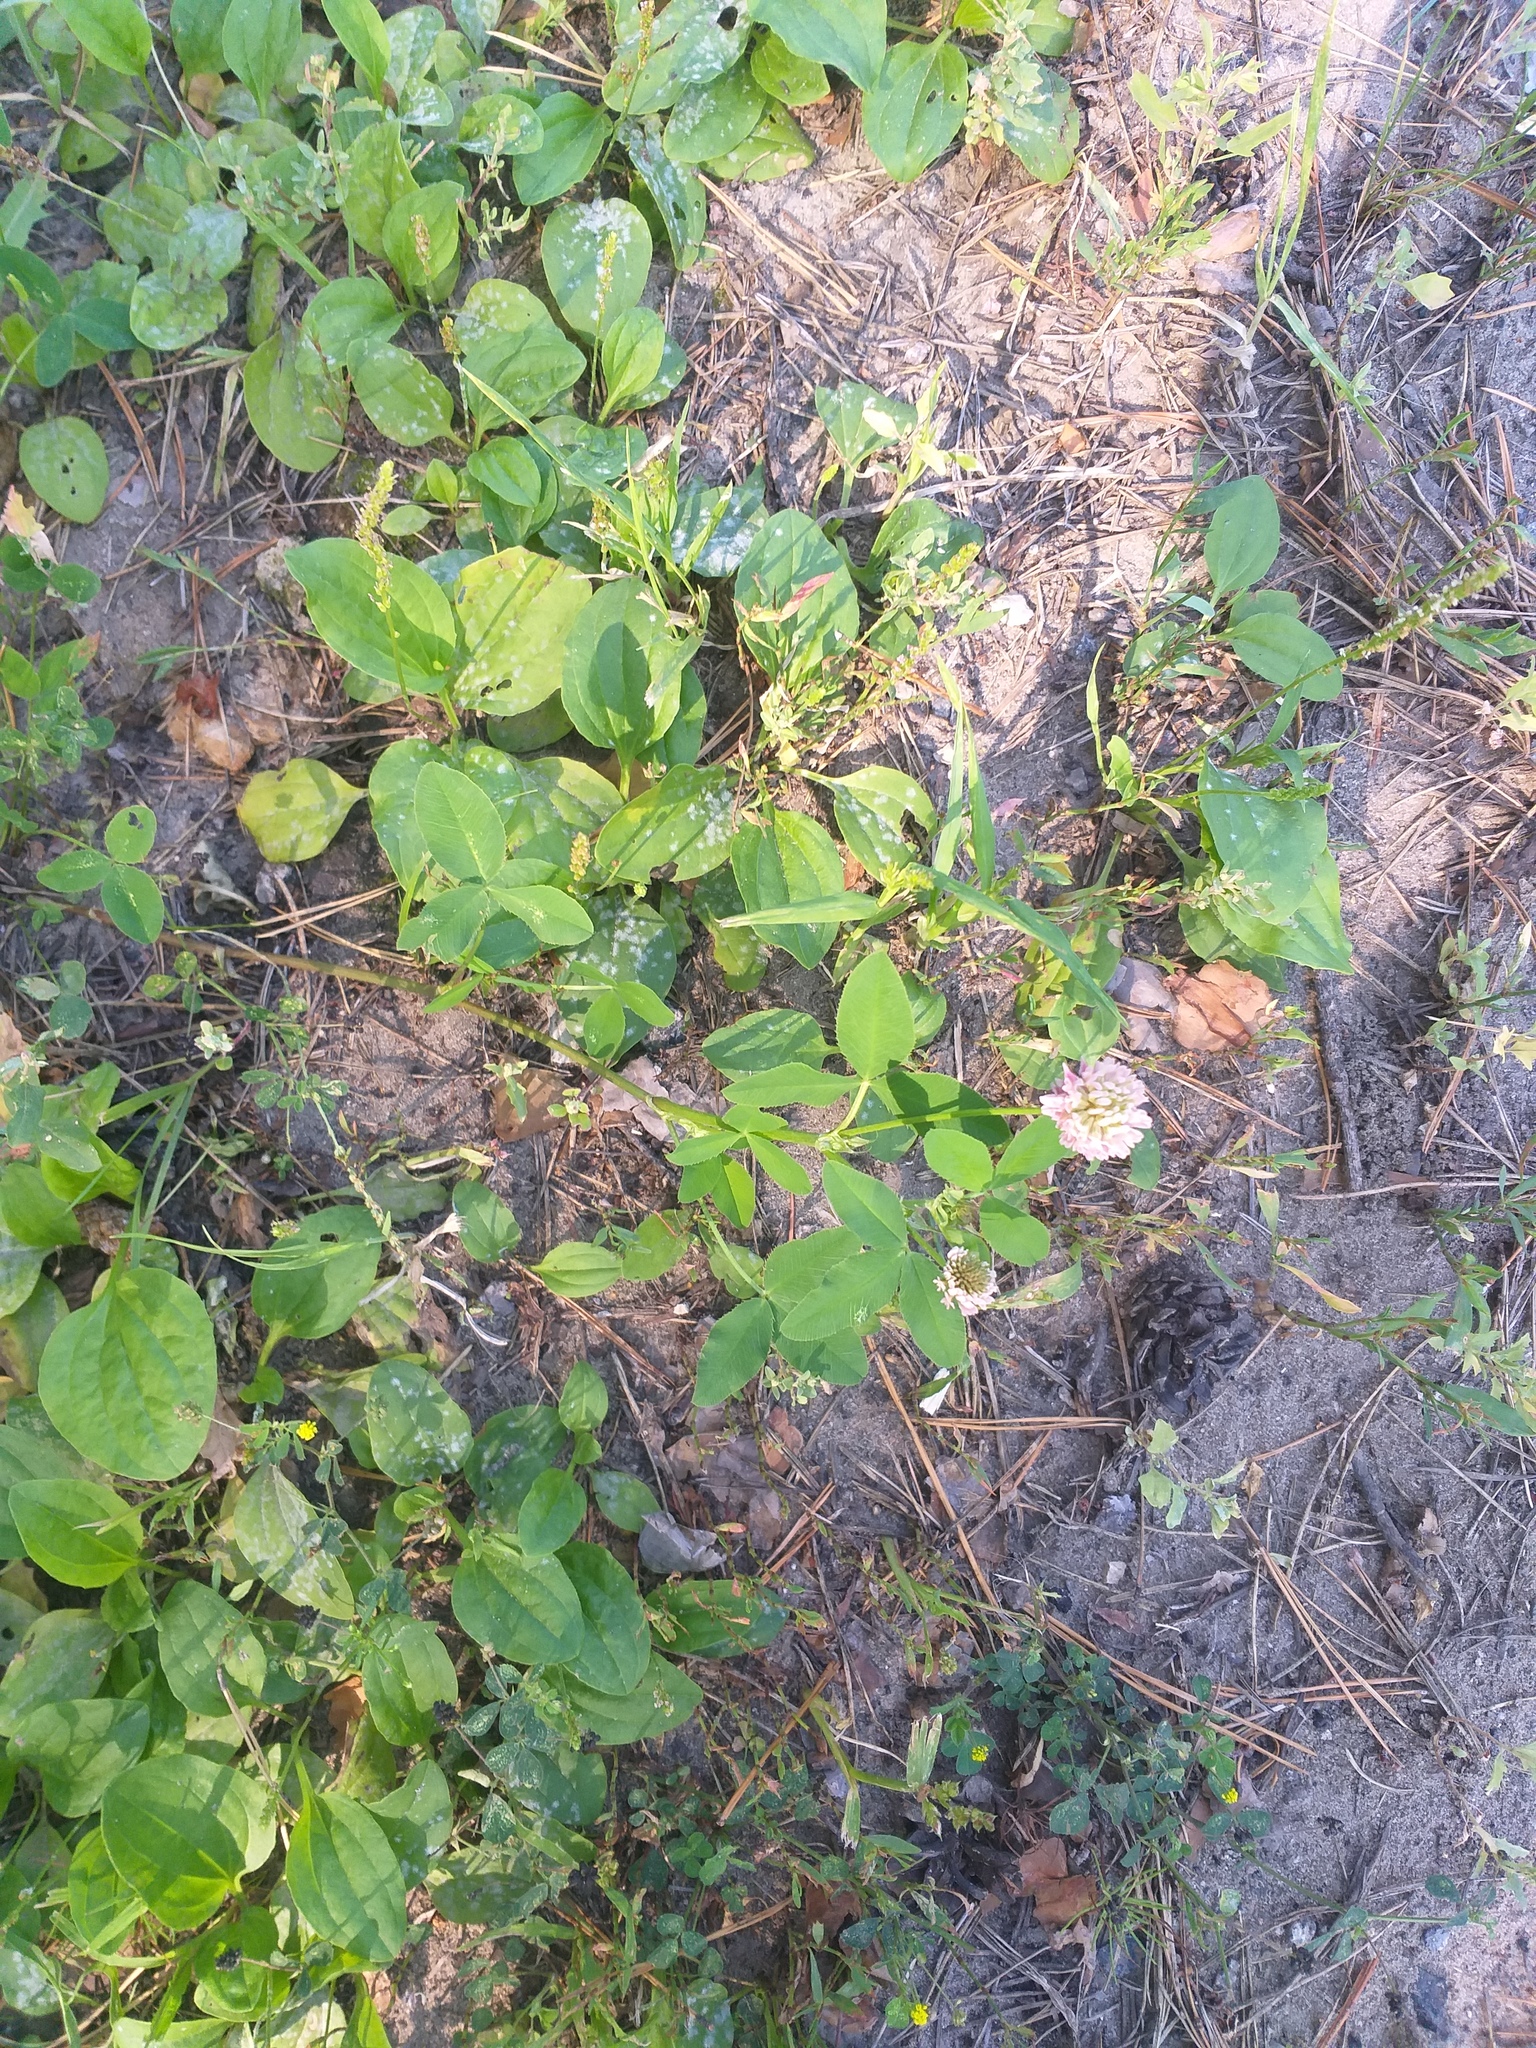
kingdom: Plantae
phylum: Tracheophyta
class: Magnoliopsida
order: Fabales
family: Fabaceae
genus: Trifolium
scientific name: Trifolium hybridum
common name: Alsike clover
